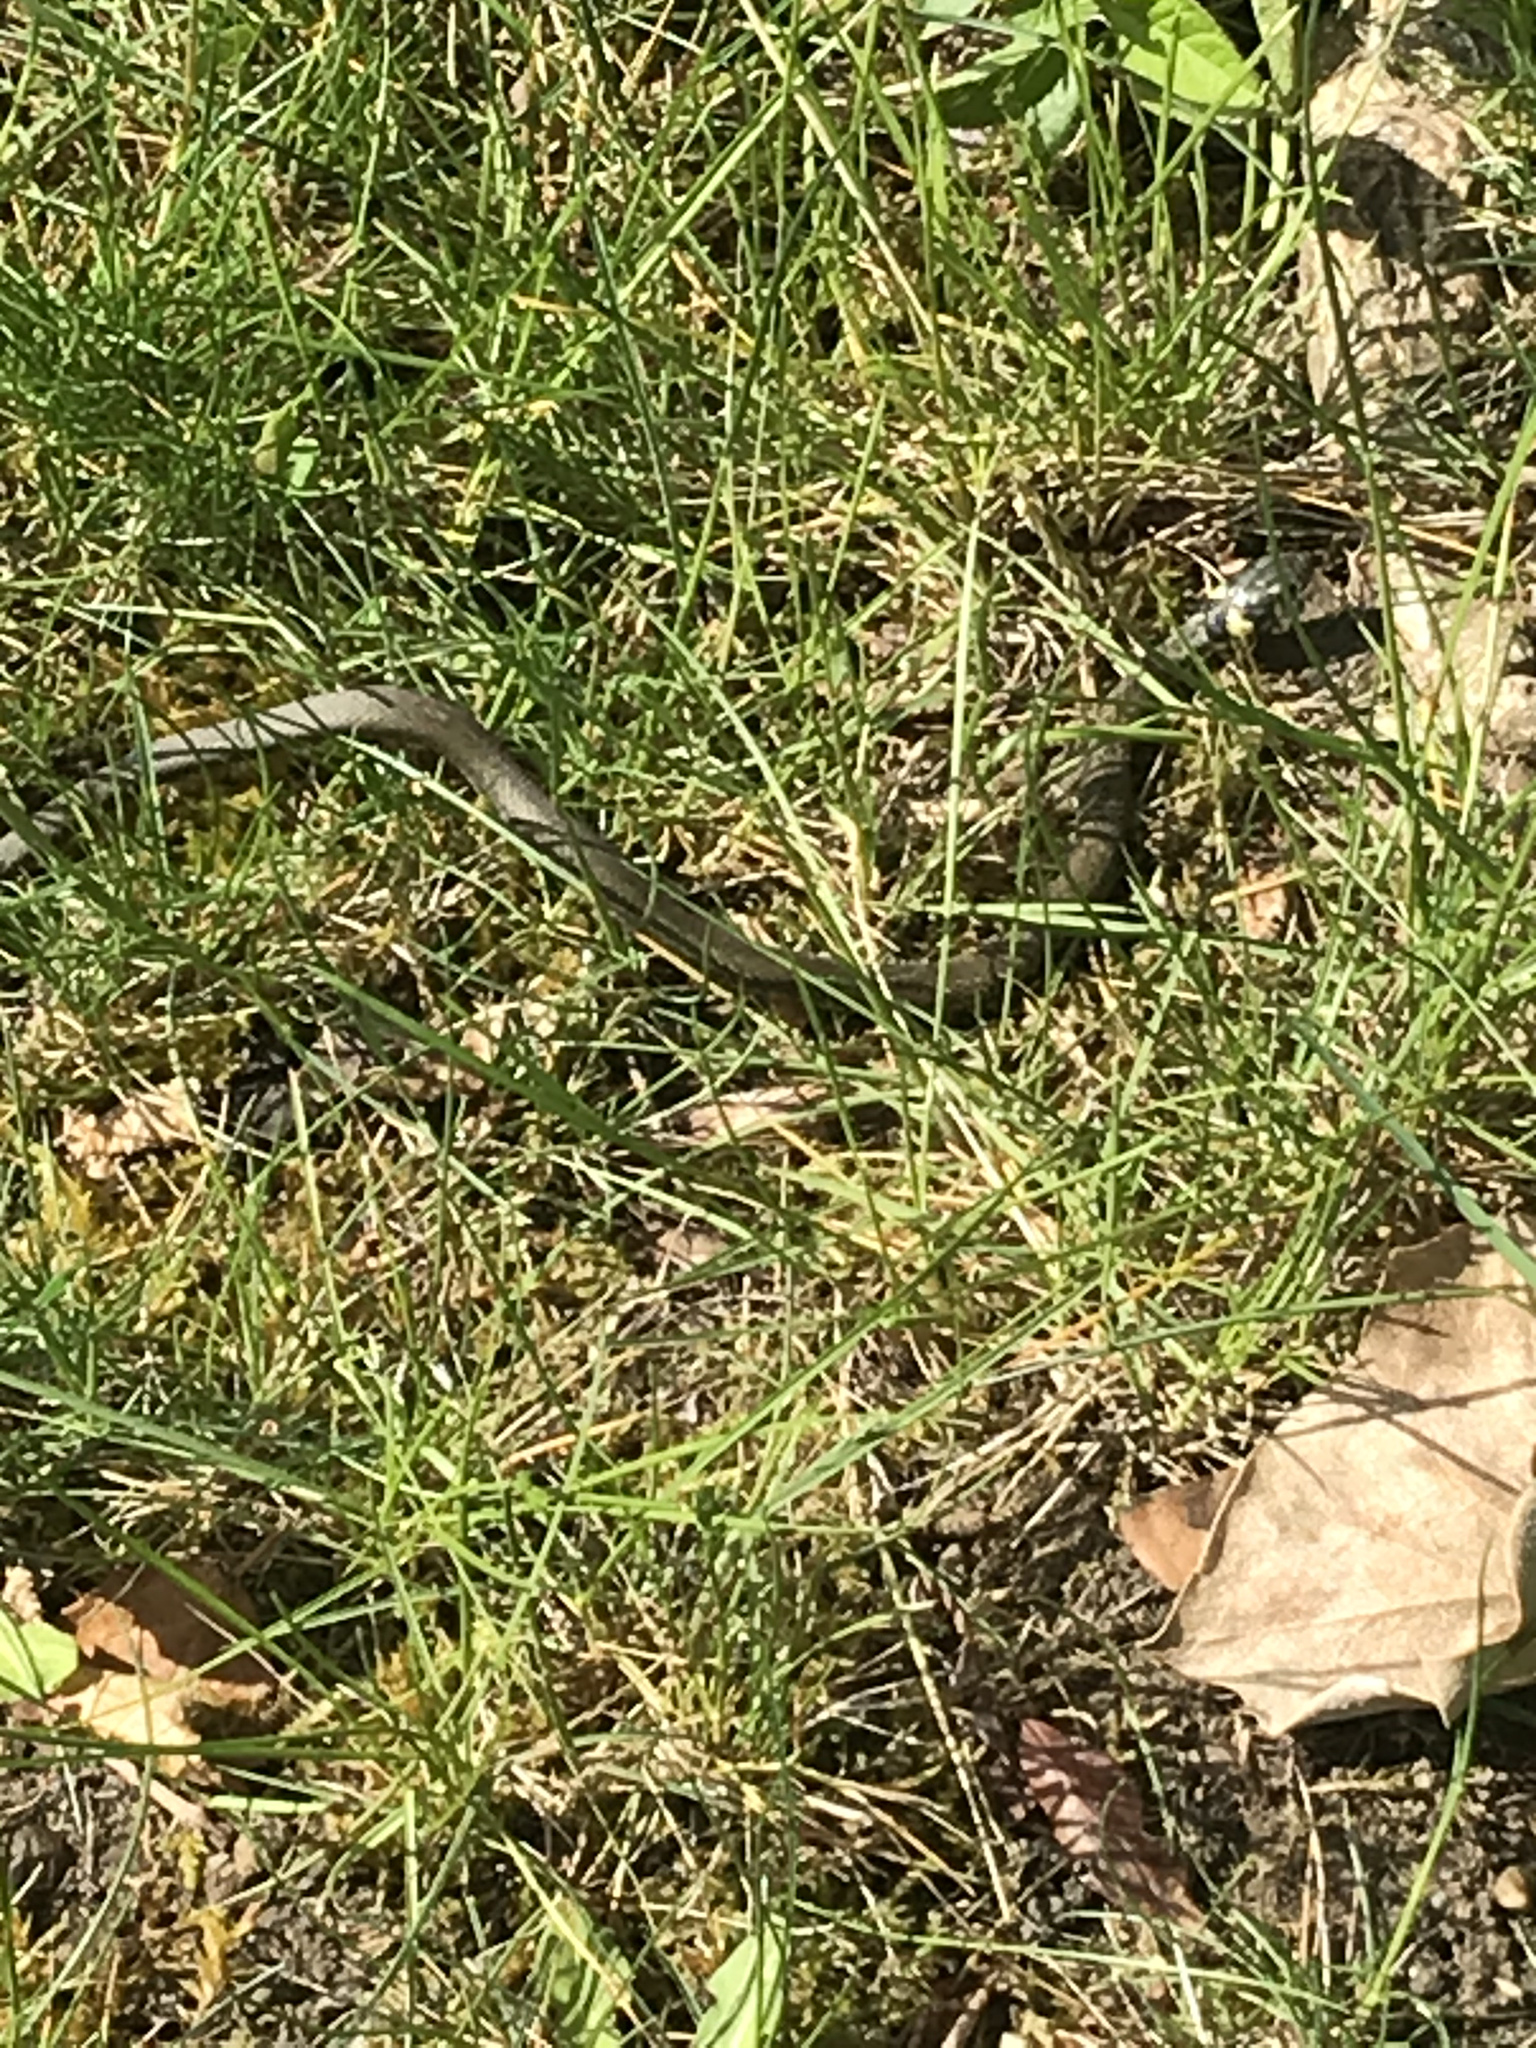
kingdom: Animalia
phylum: Chordata
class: Squamata
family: Colubridae
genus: Natrix
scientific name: Natrix natrix
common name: Grass snake
